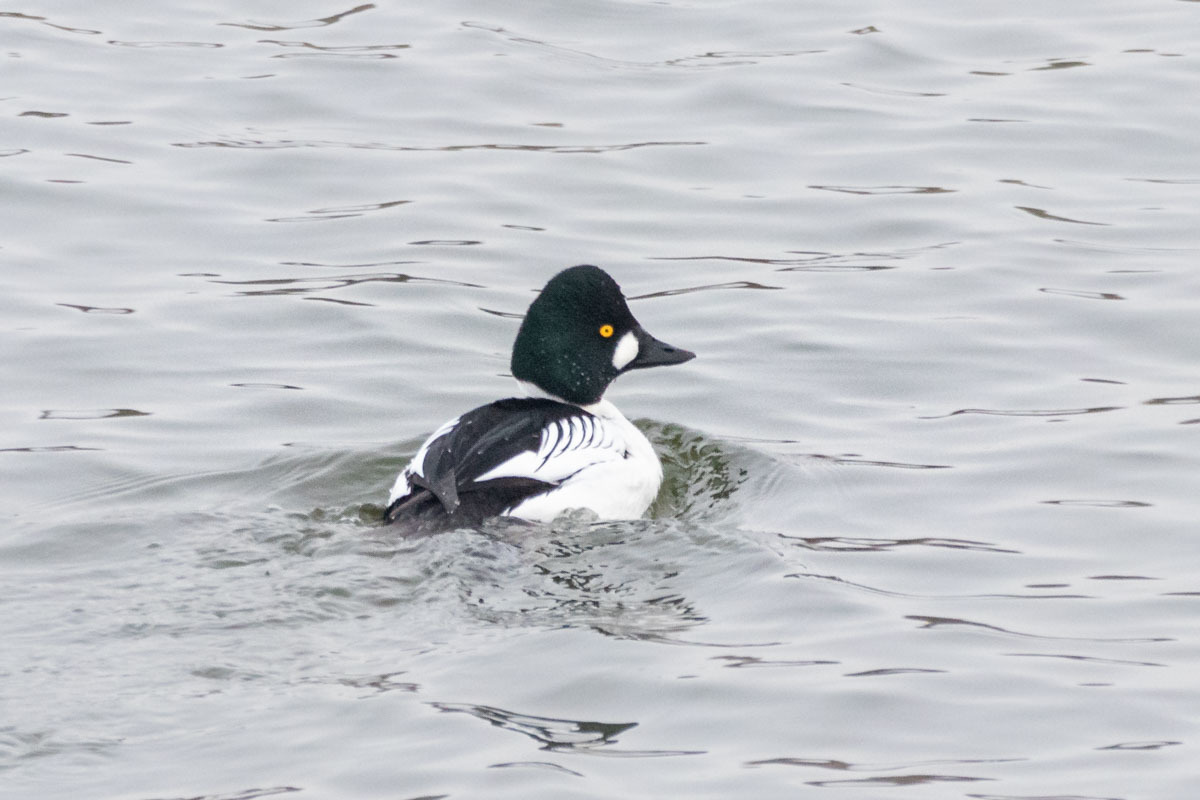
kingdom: Animalia
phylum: Chordata
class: Aves
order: Anseriformes
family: Anatidae
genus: Bucephala
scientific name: Bucephala clangula
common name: Common goldeneye
